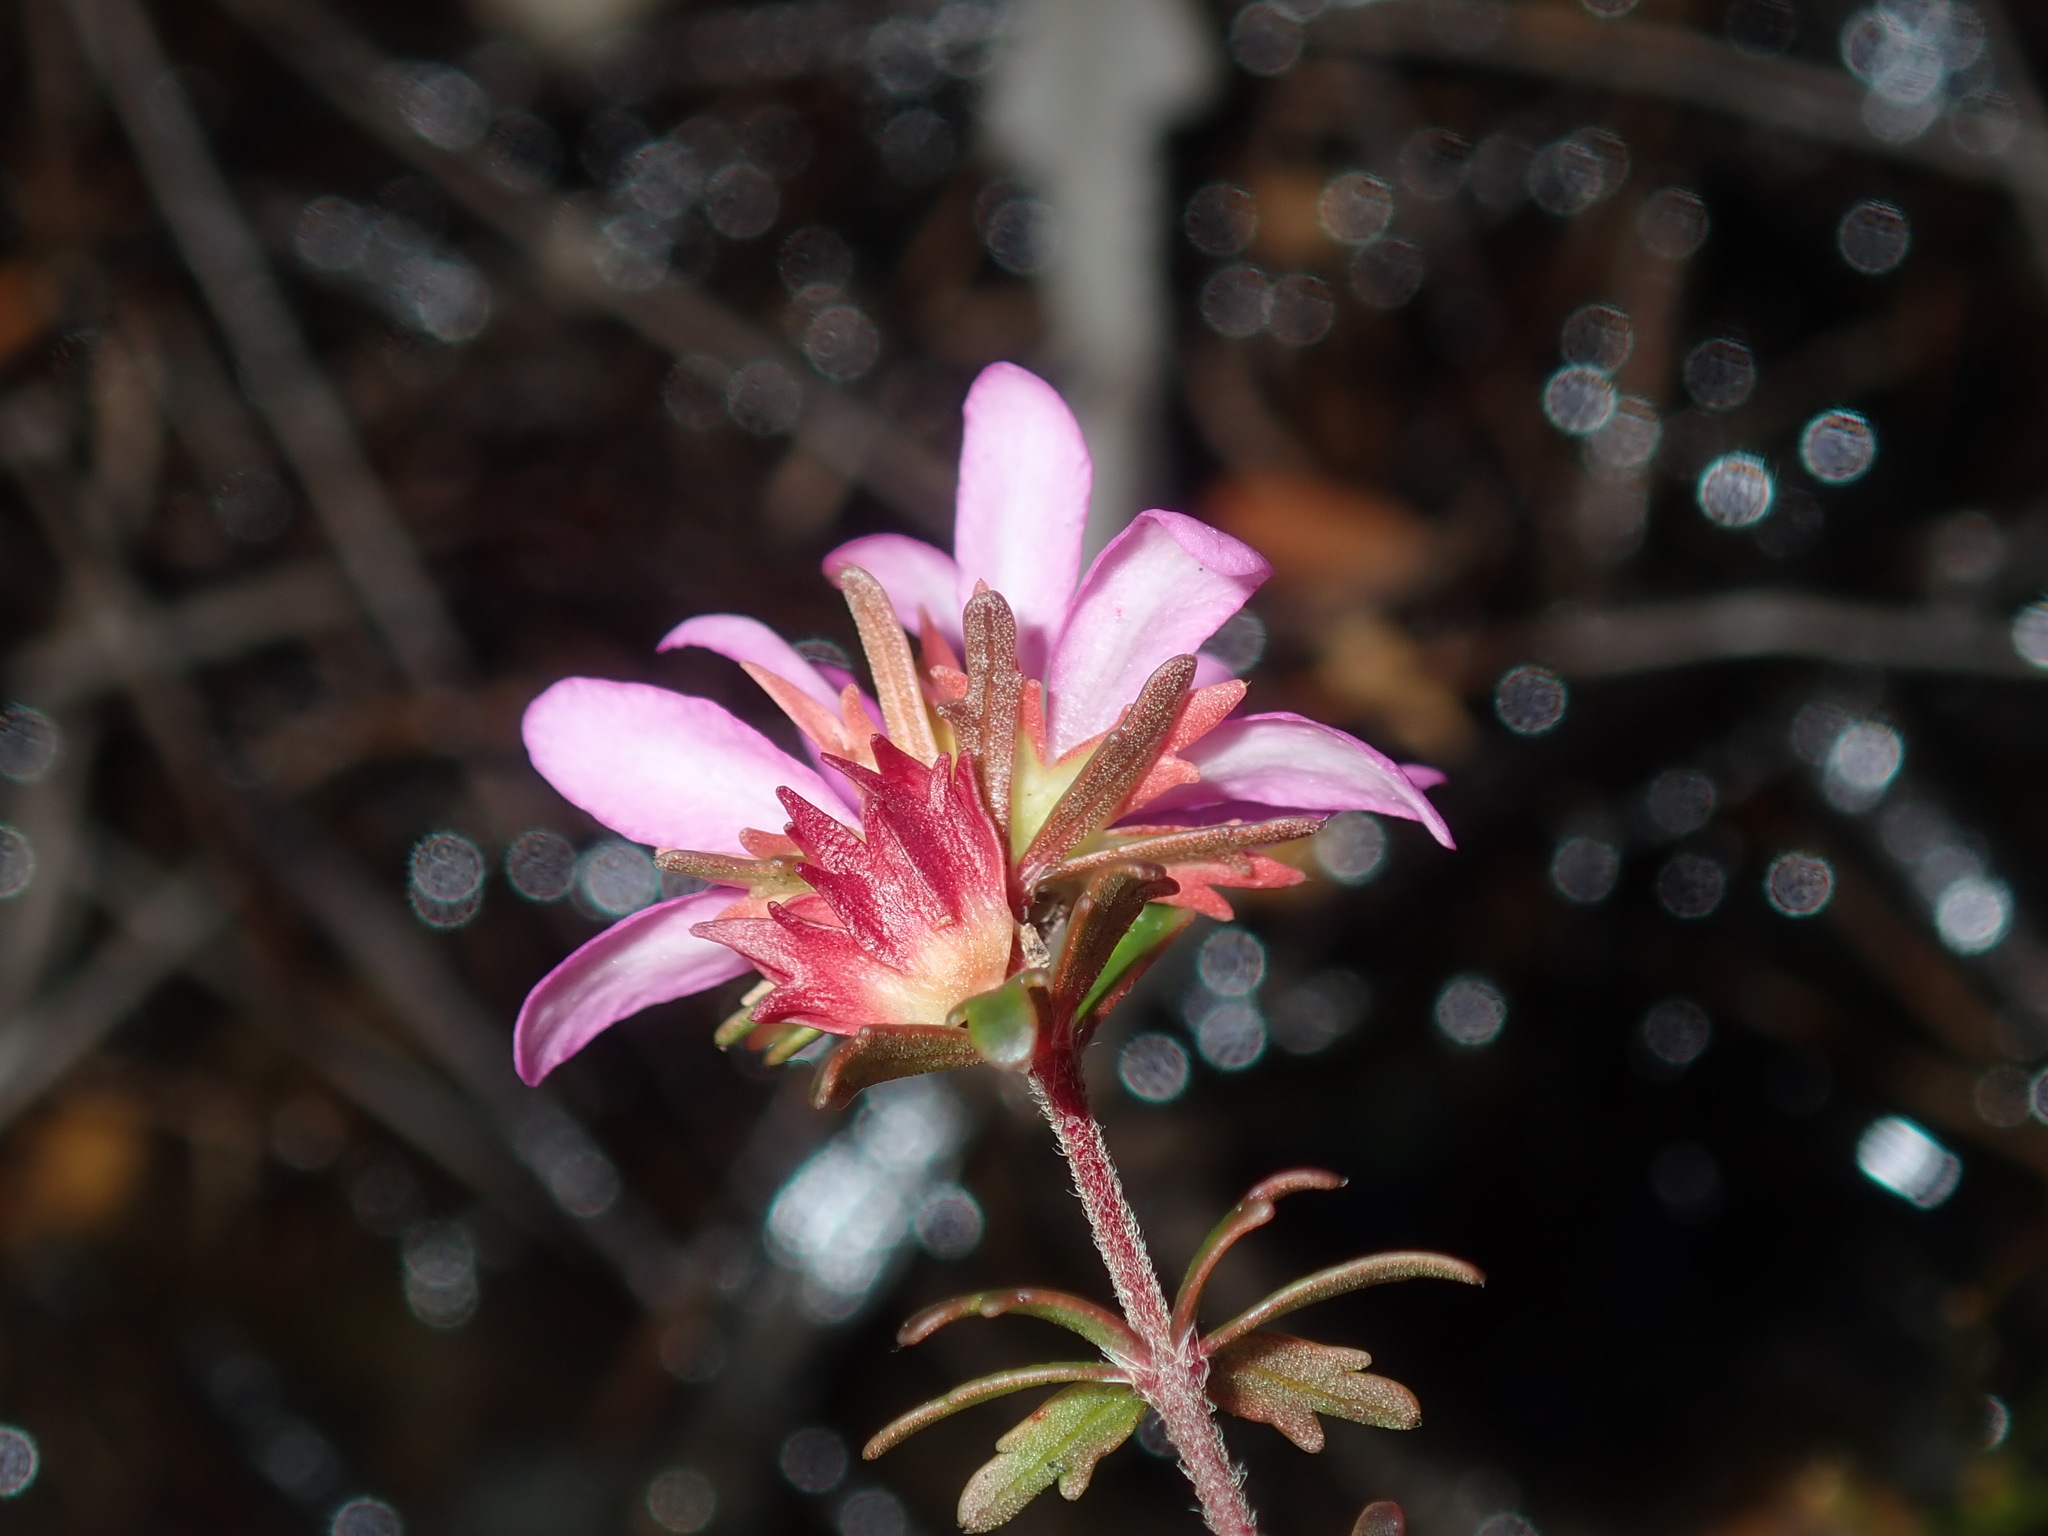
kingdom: Plantae
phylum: Tracheophyta
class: Magnoliopsida
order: Oxalidales
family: Cunoniaceae
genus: Bauera
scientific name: Bauera capitata
